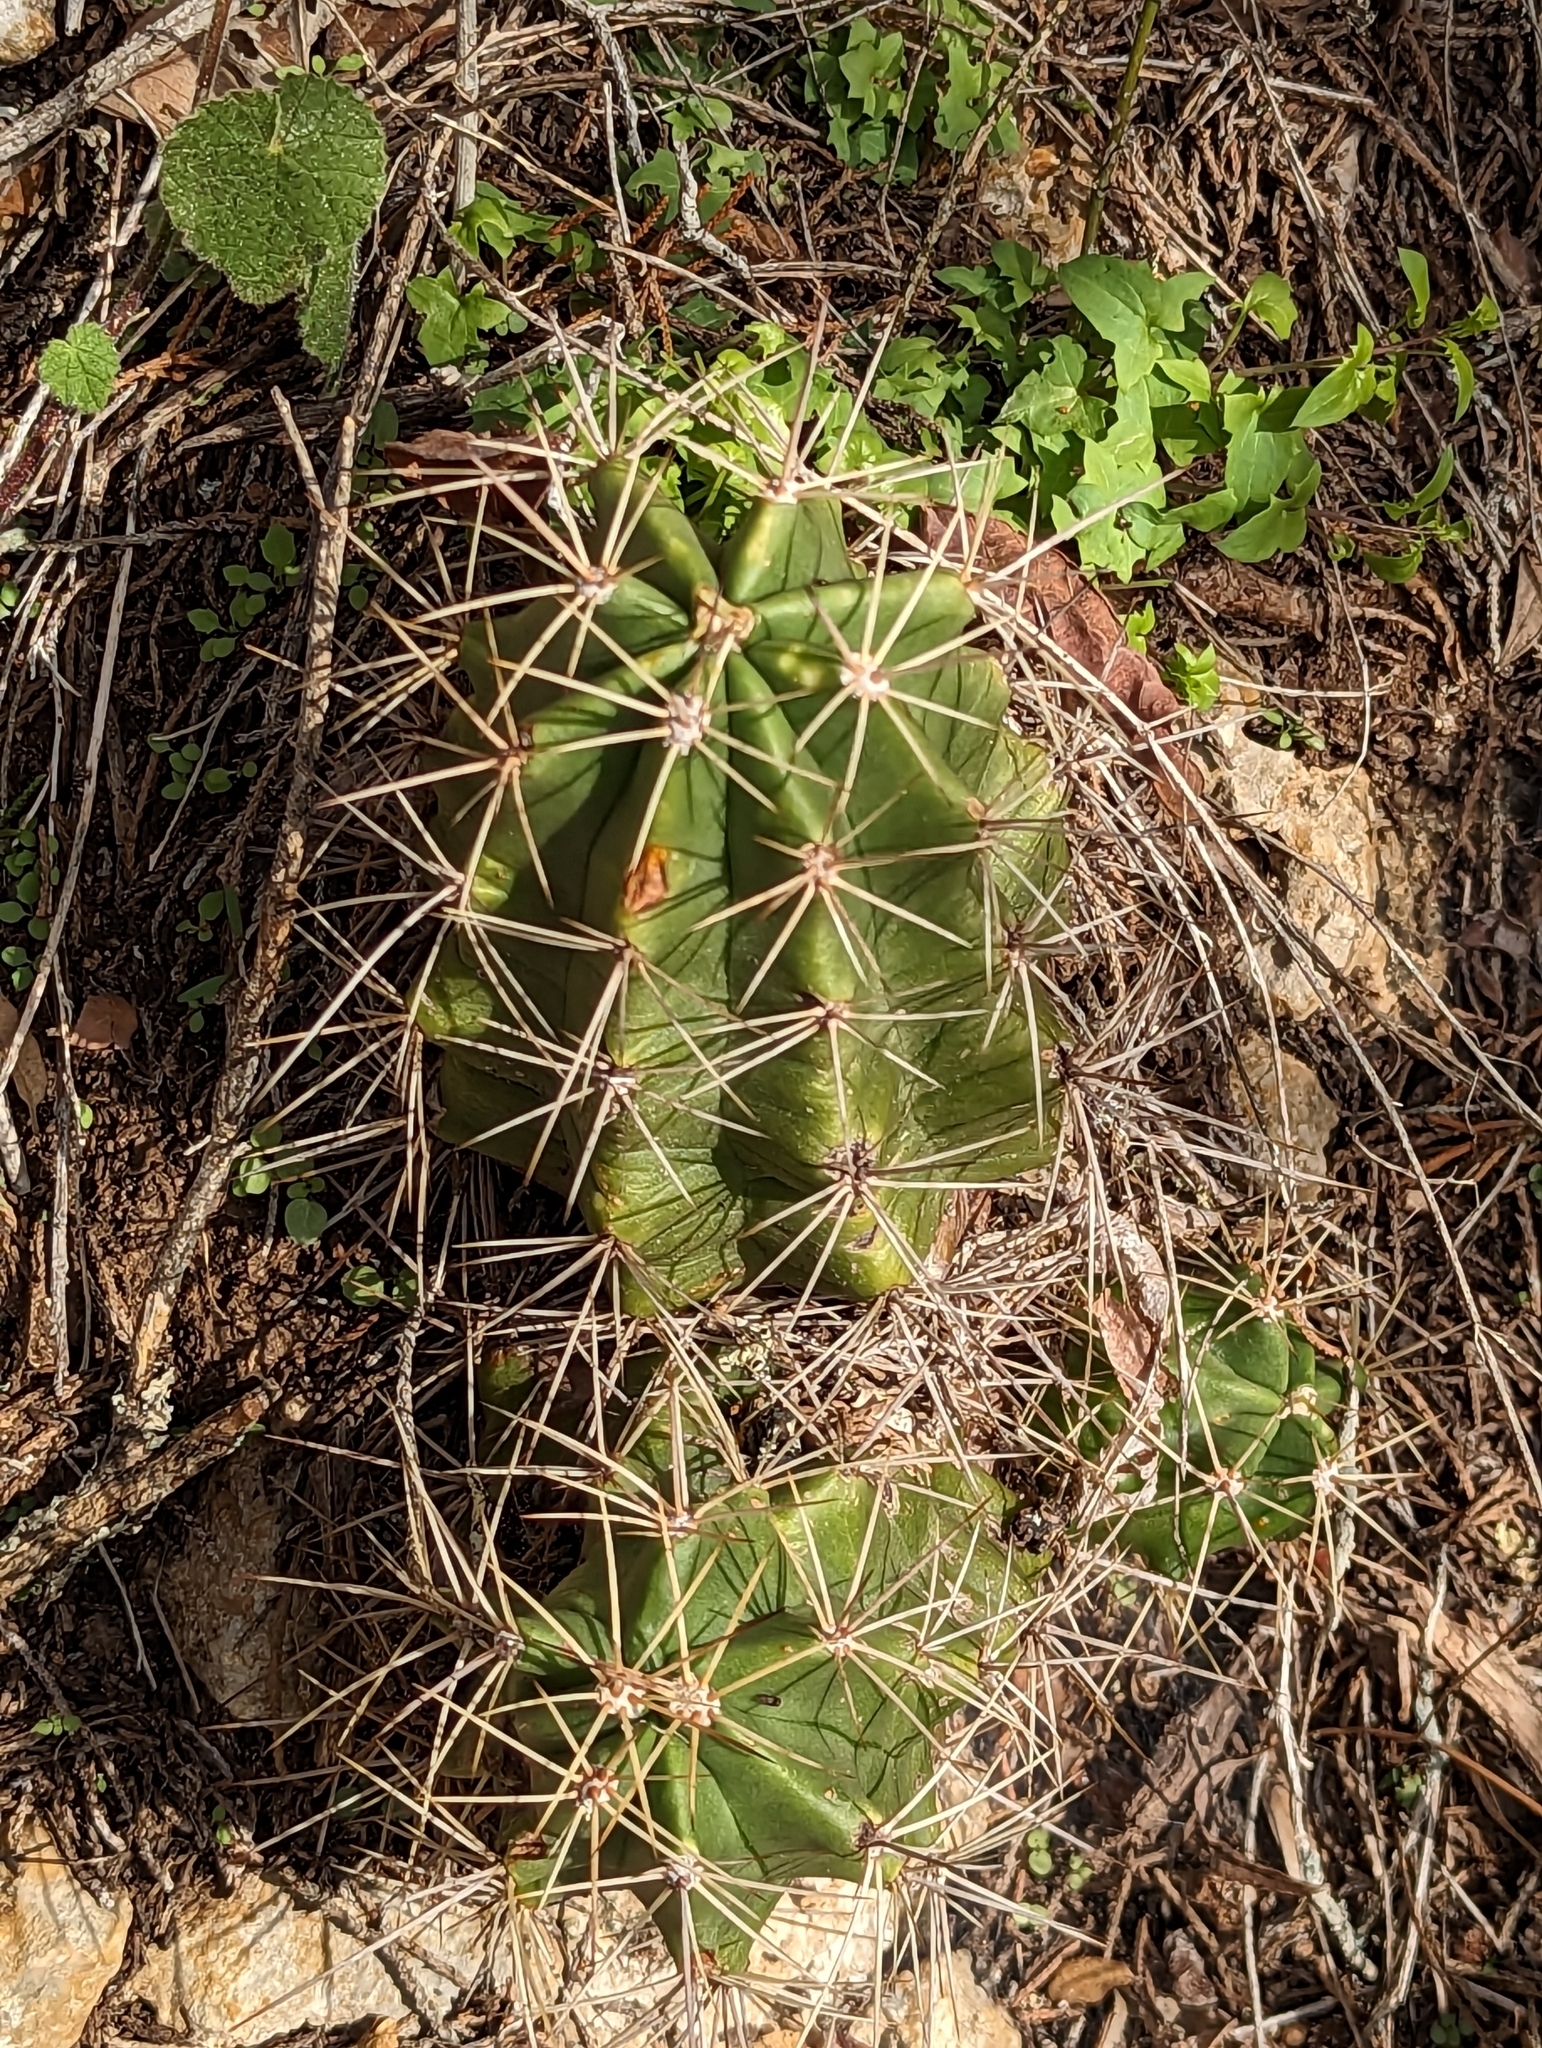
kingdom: Plantae
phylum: Tracheophyta
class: Magnoliopsida
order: Caryophyllales
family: Cactaceae
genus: Echinocereus
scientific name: Echinocereus coccineus
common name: Scarlet hedgehog cactus
